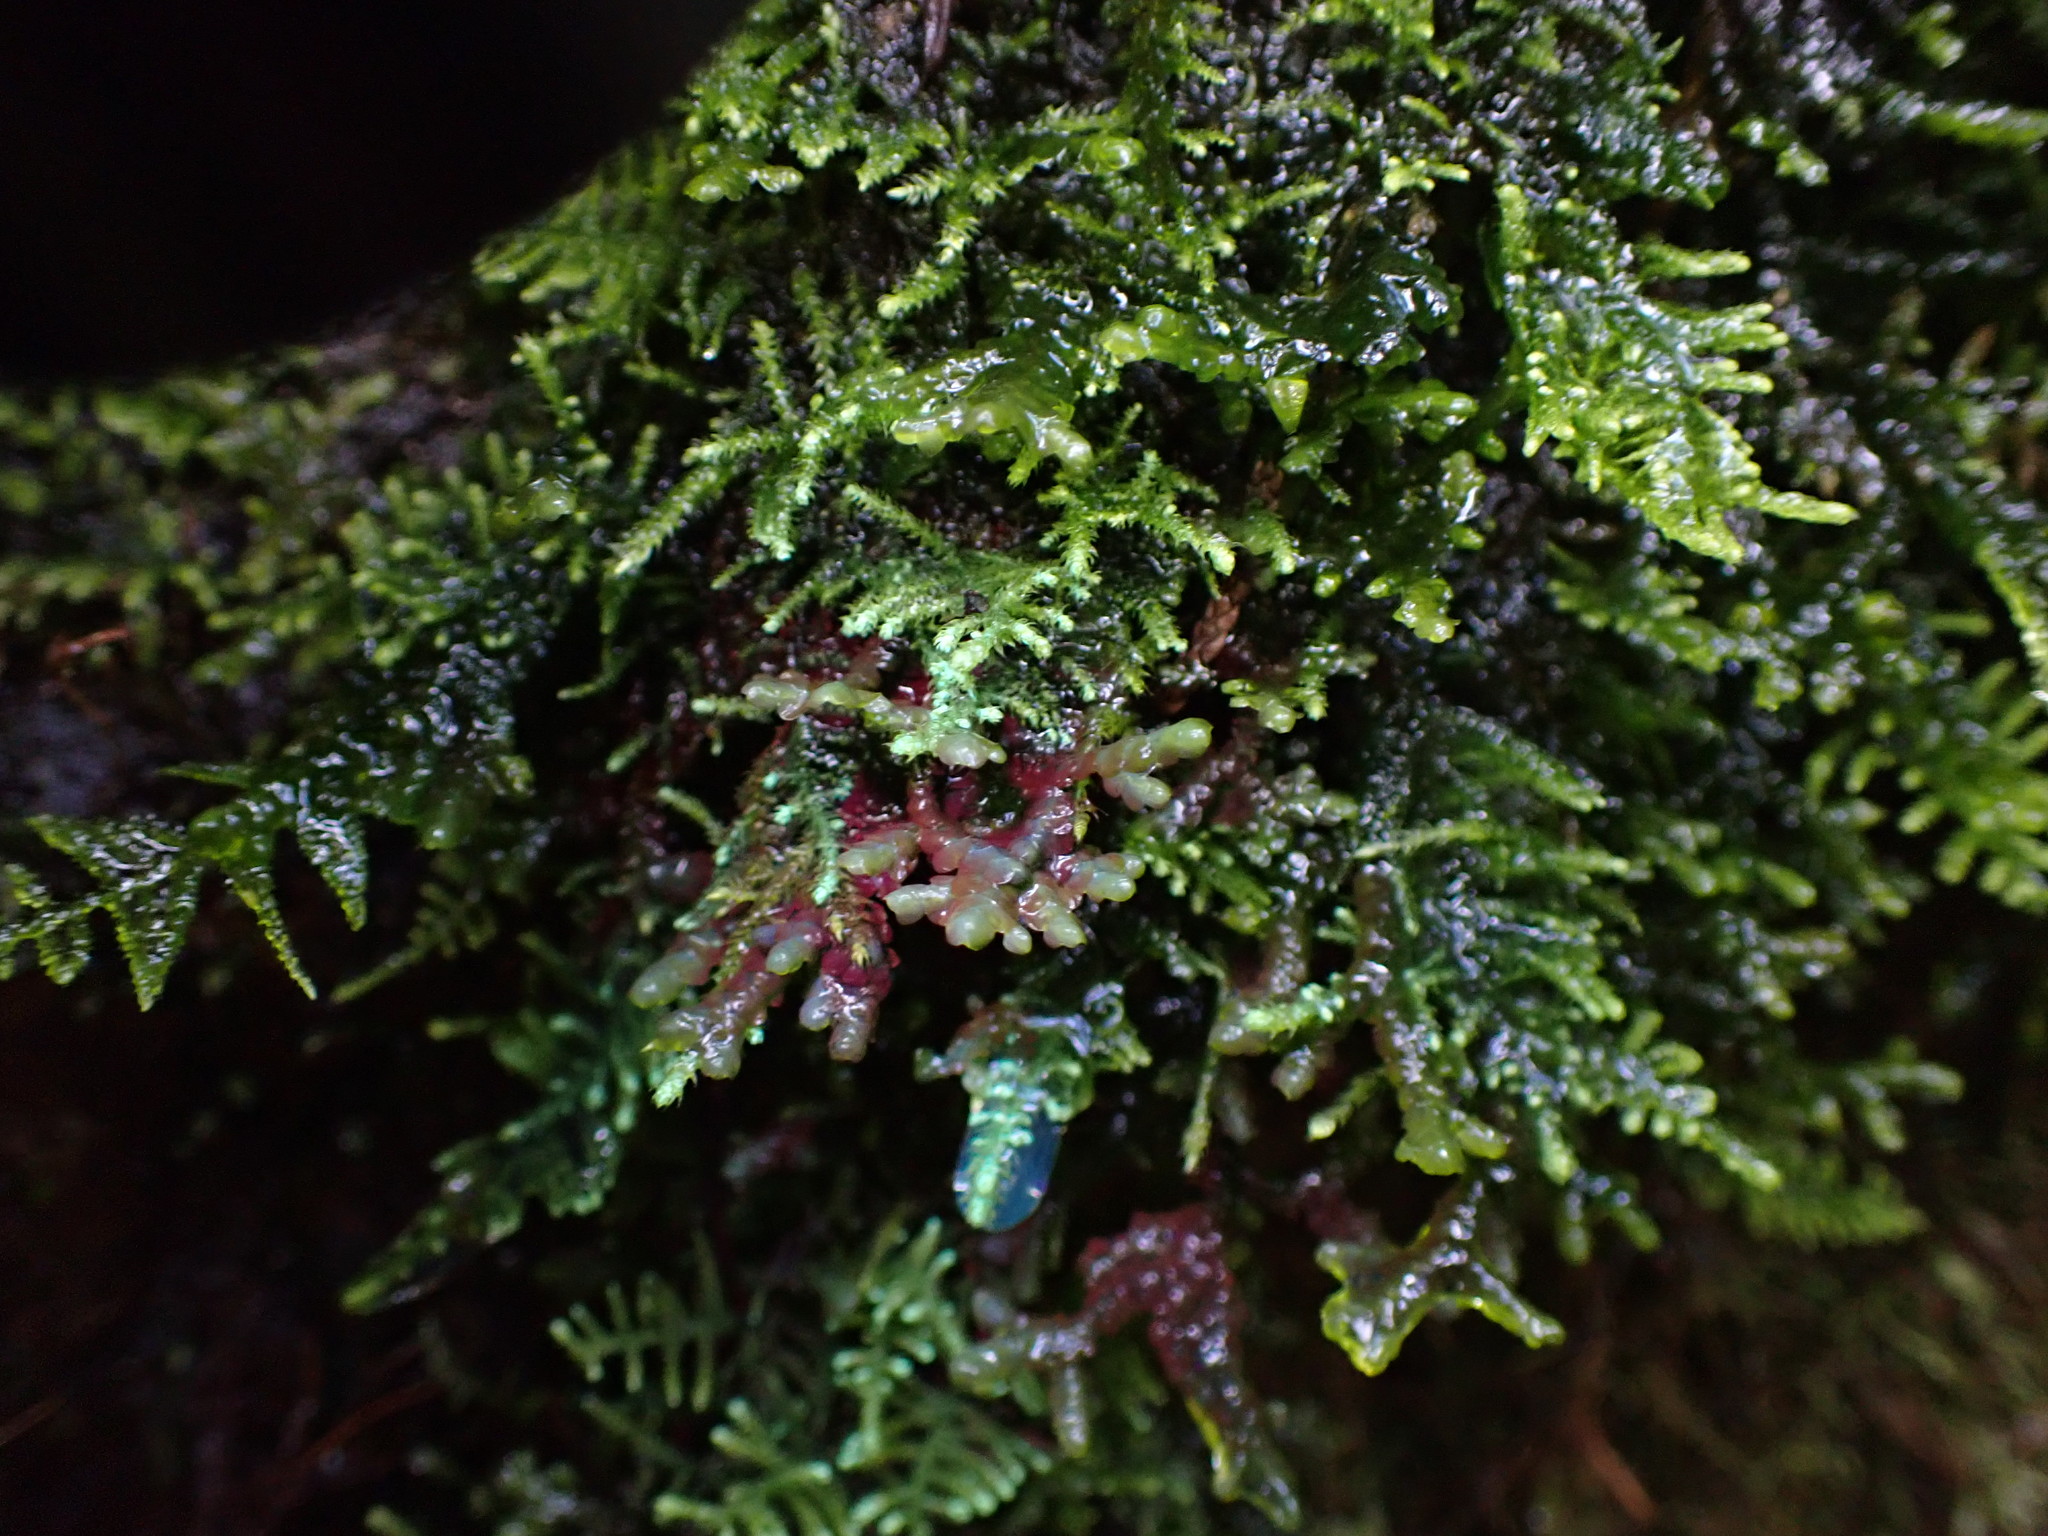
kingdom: Plantae
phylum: Marchantiophyta
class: Jungermanniopsida
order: Porellales
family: Porellaceae
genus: Porella
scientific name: Porella roellii
